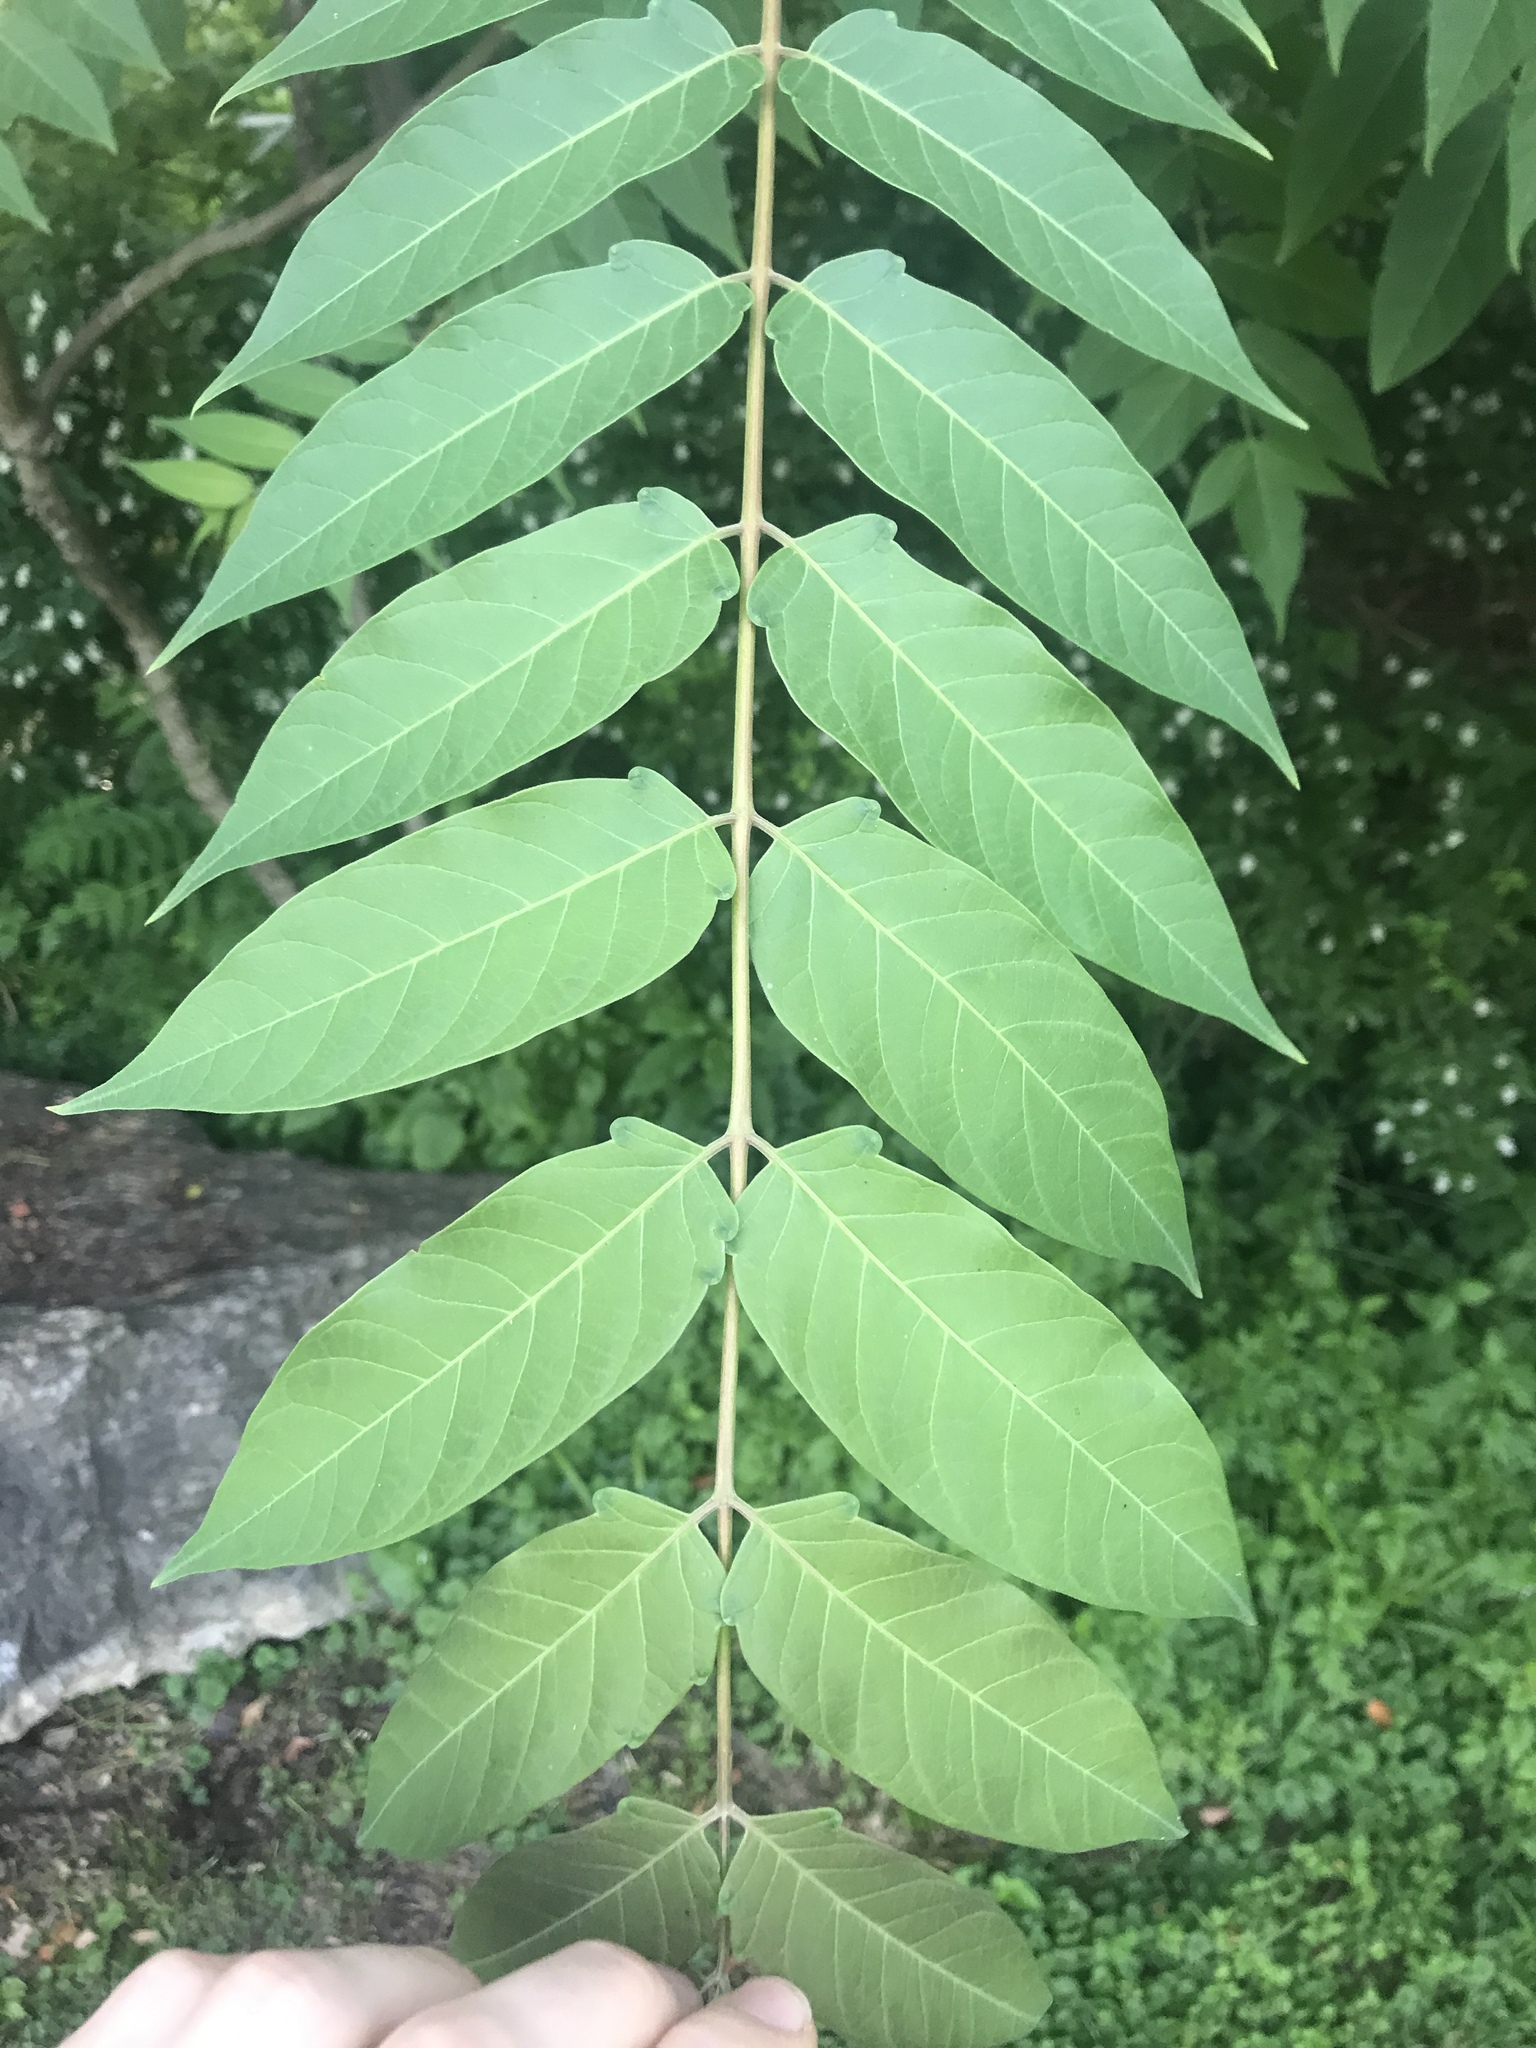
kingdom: Plantae
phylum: Tracheophyta
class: Magnoliopsida
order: Sapindales
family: Simaroubaceae
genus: Ailanthus
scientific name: Ailanthus altissima
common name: Tree-of-heaven
